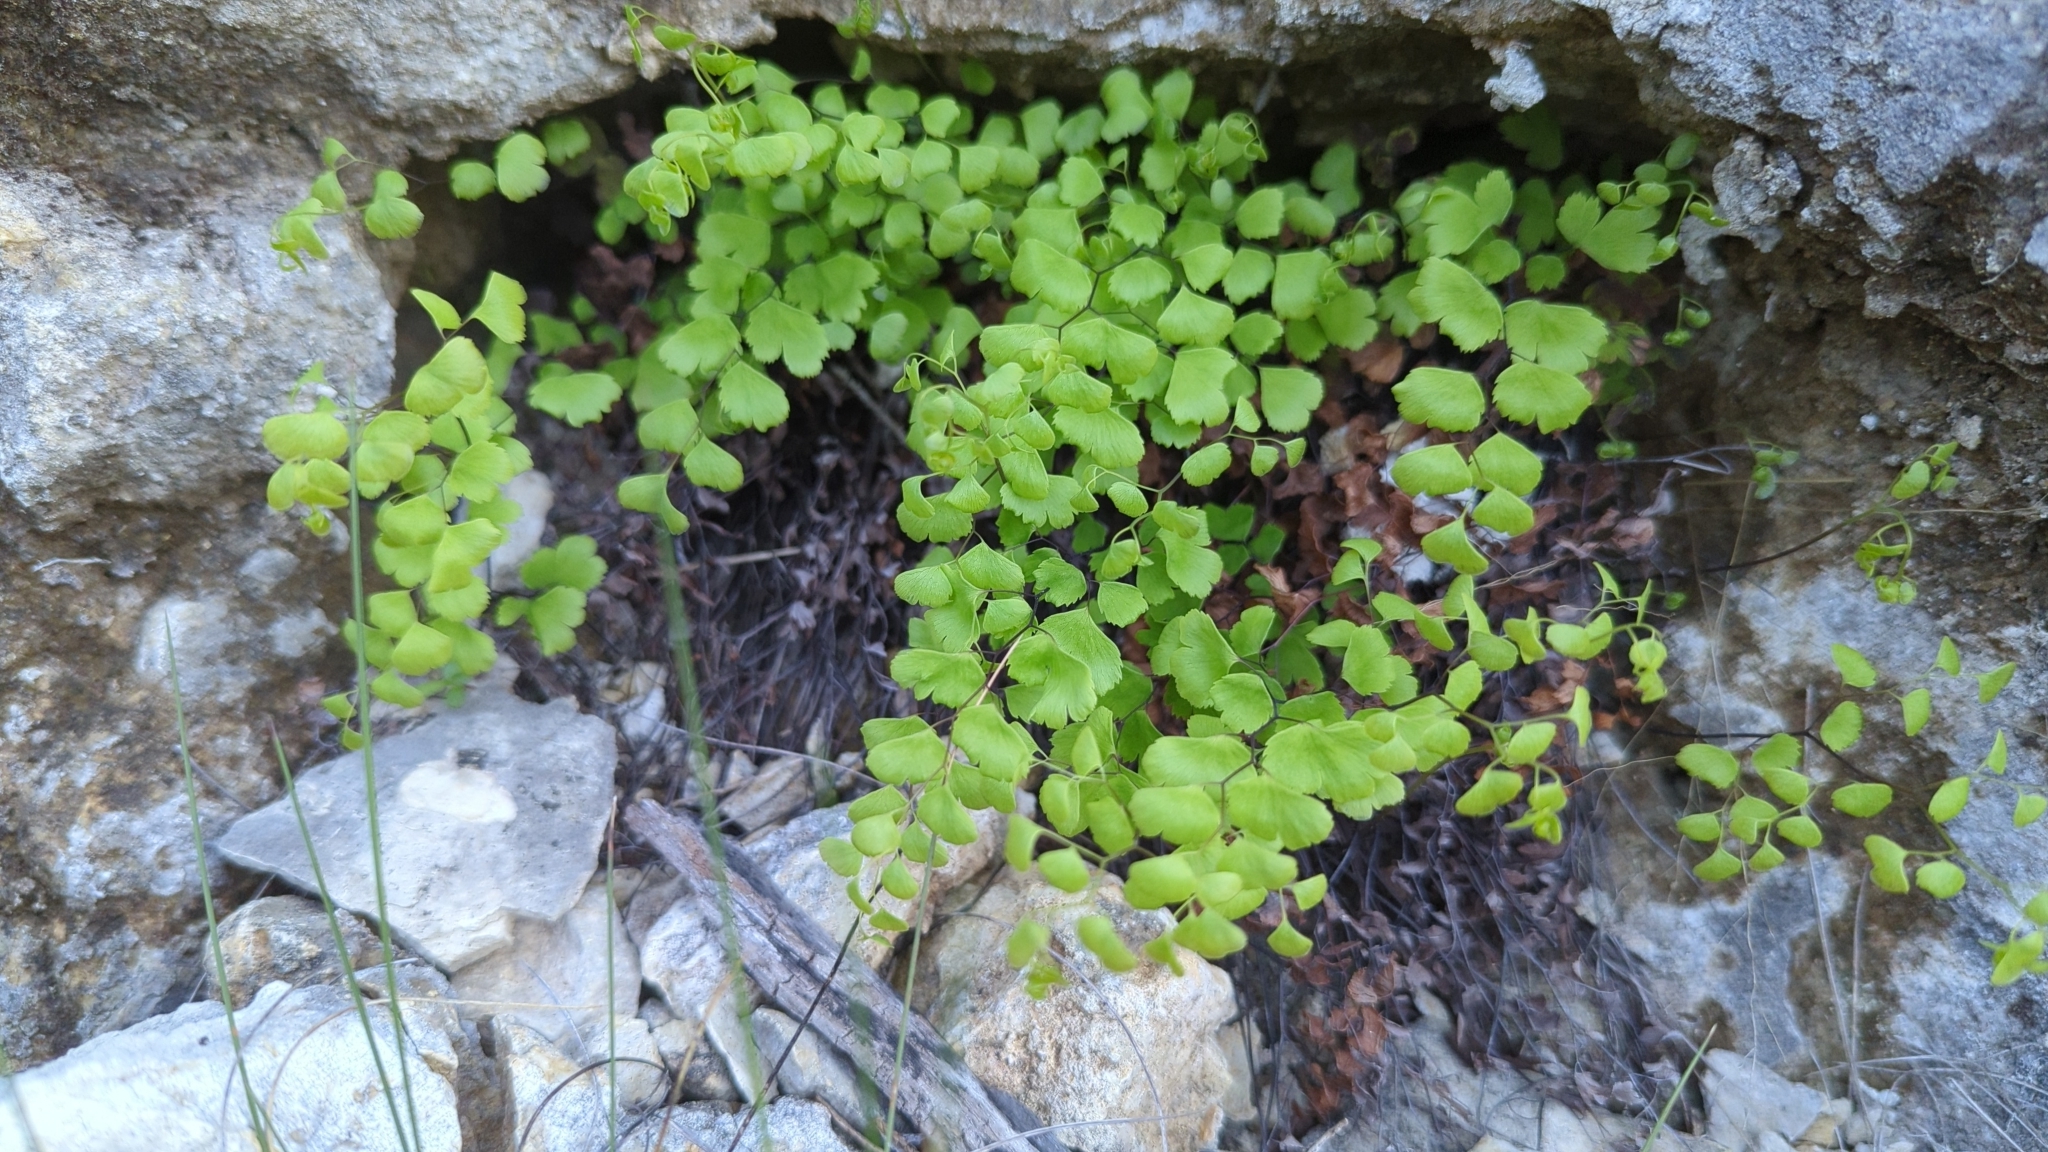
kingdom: Plantae
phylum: Tracheophyta
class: Polypodiopsida
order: Polypodiales
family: Pteridaceae
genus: Adiantum
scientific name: Adiantum capillus-veneris
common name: Maidenhair fern
